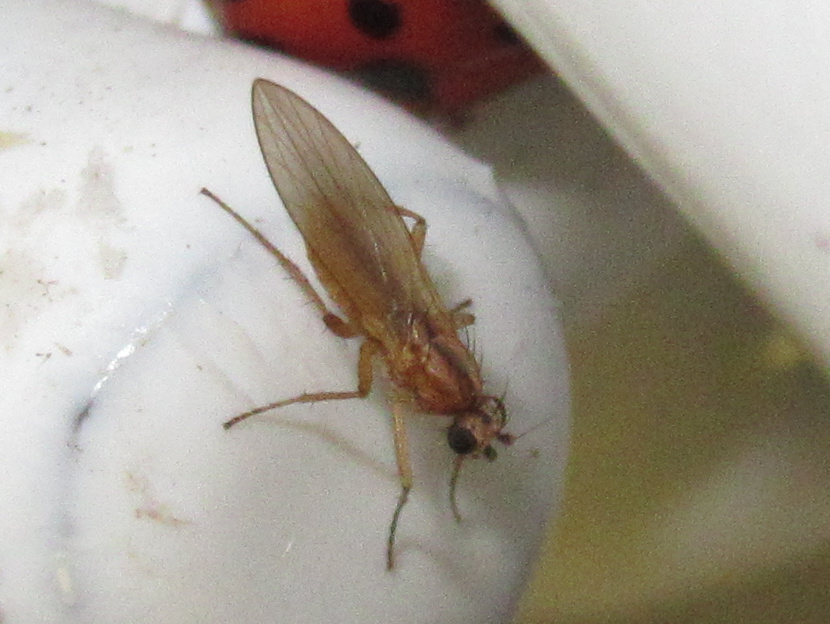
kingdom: Animalia
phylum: Arthropoda
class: Insecta
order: Diptera
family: Lonchopteridae
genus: Lonchoptera
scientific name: Lonchoptera bifurcata
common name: Spear-winged fly
